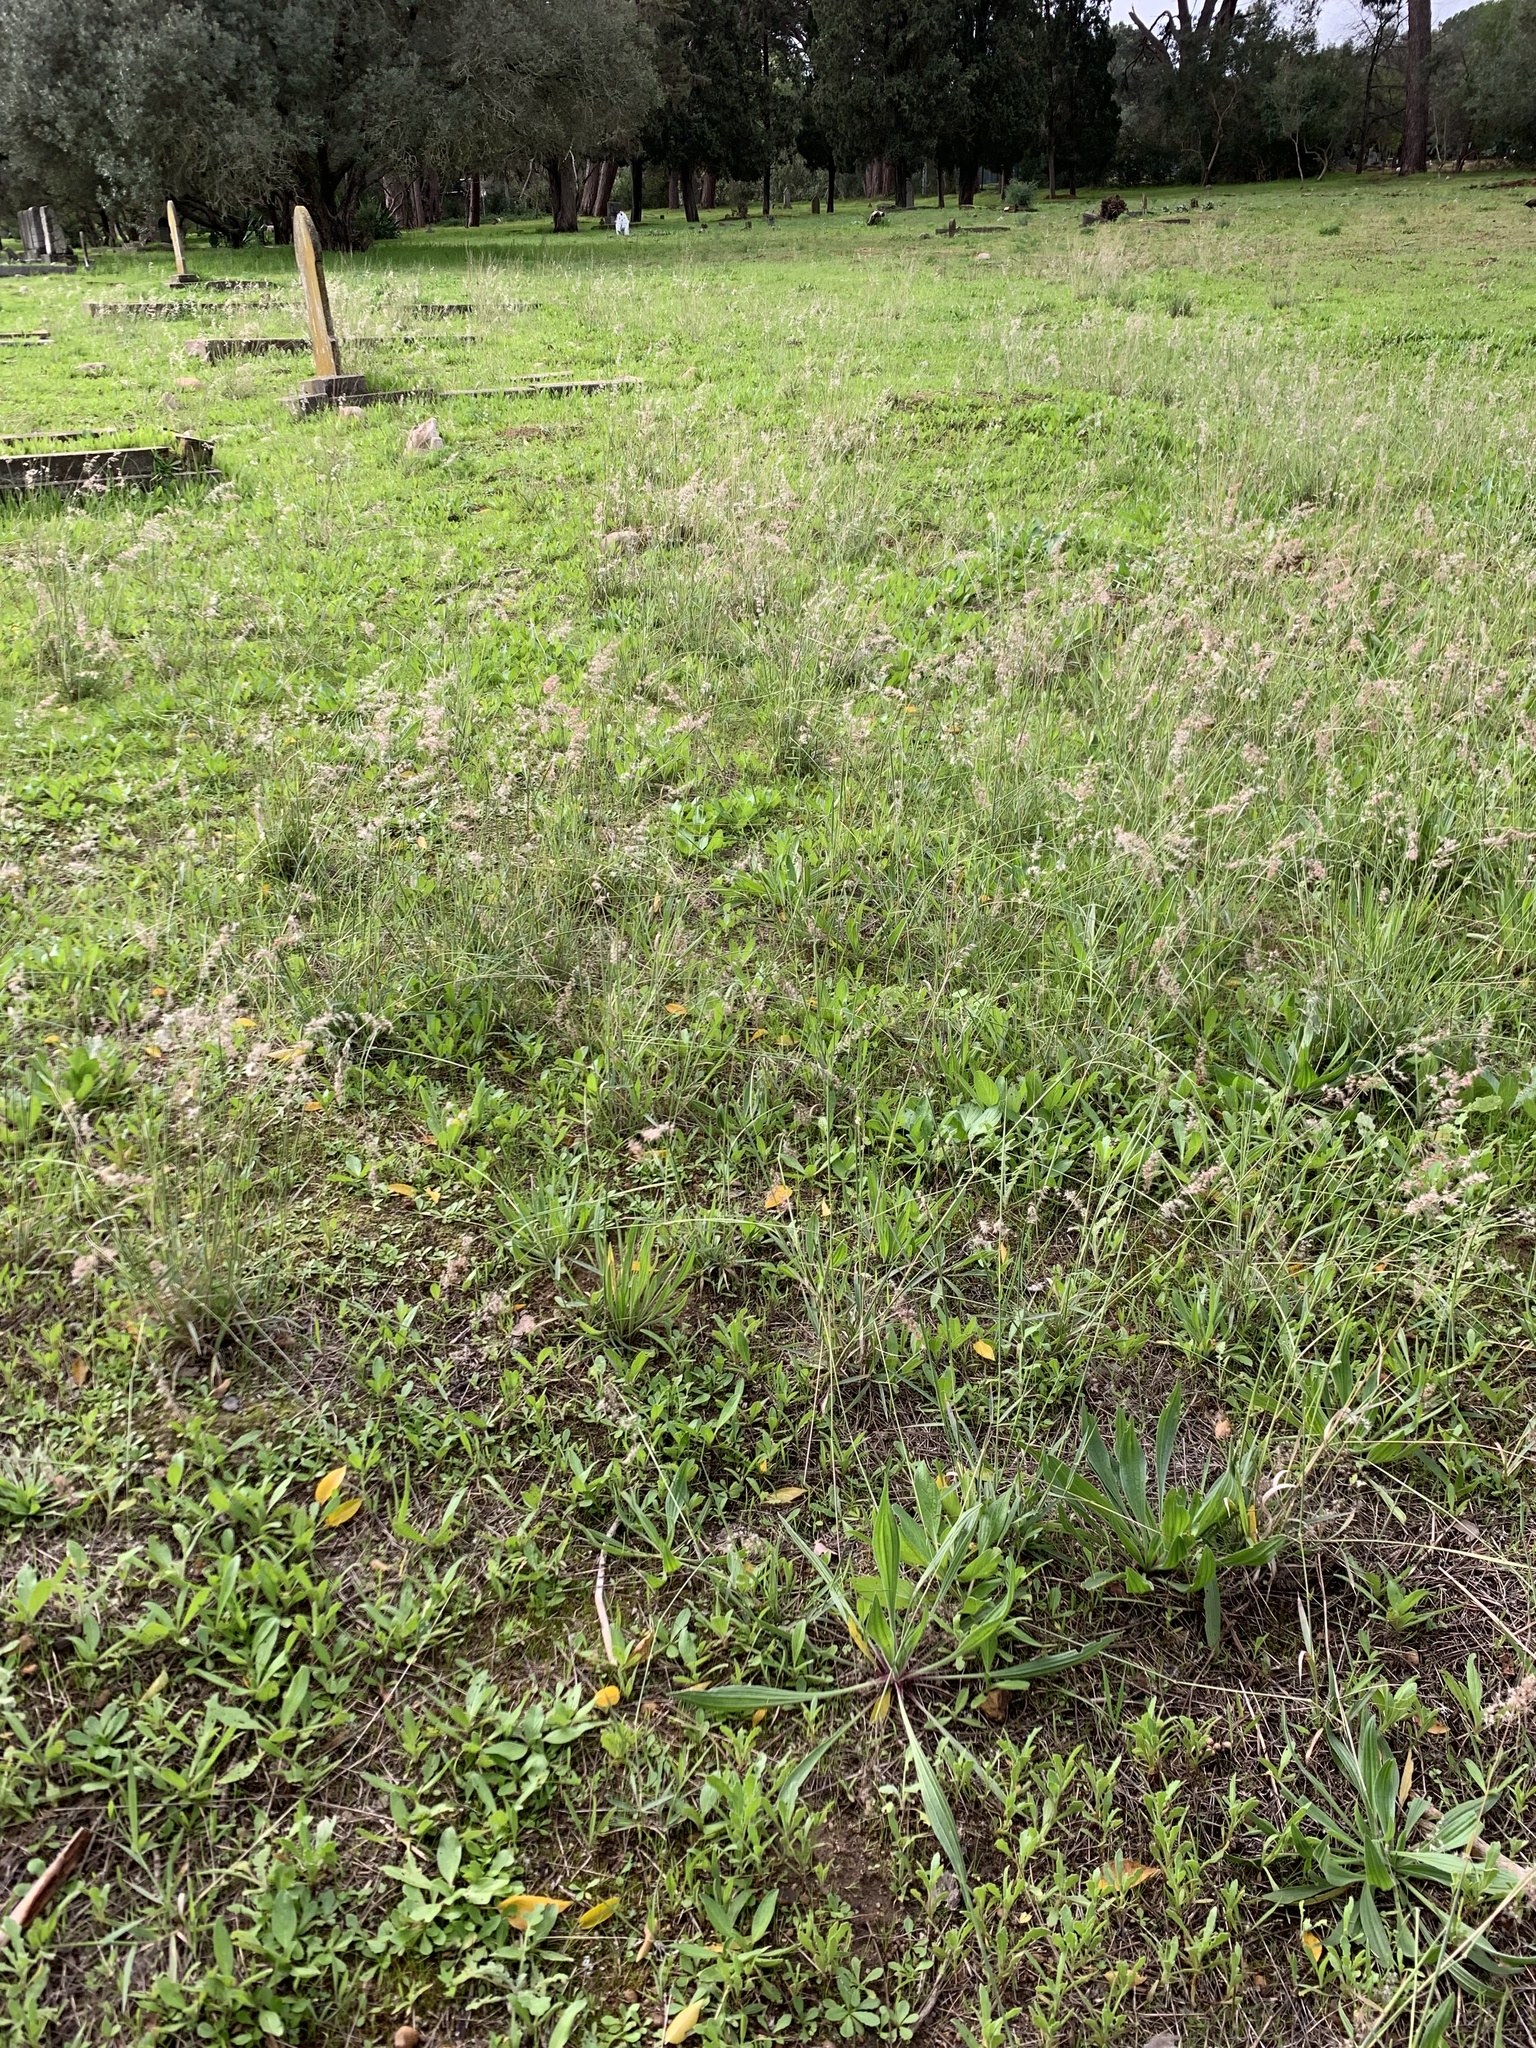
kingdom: Plantae
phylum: Tracheophyta
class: Liliopsida
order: Poales
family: Poaceae
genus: Melinis
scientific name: Melinis repens
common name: Rose natal grass
